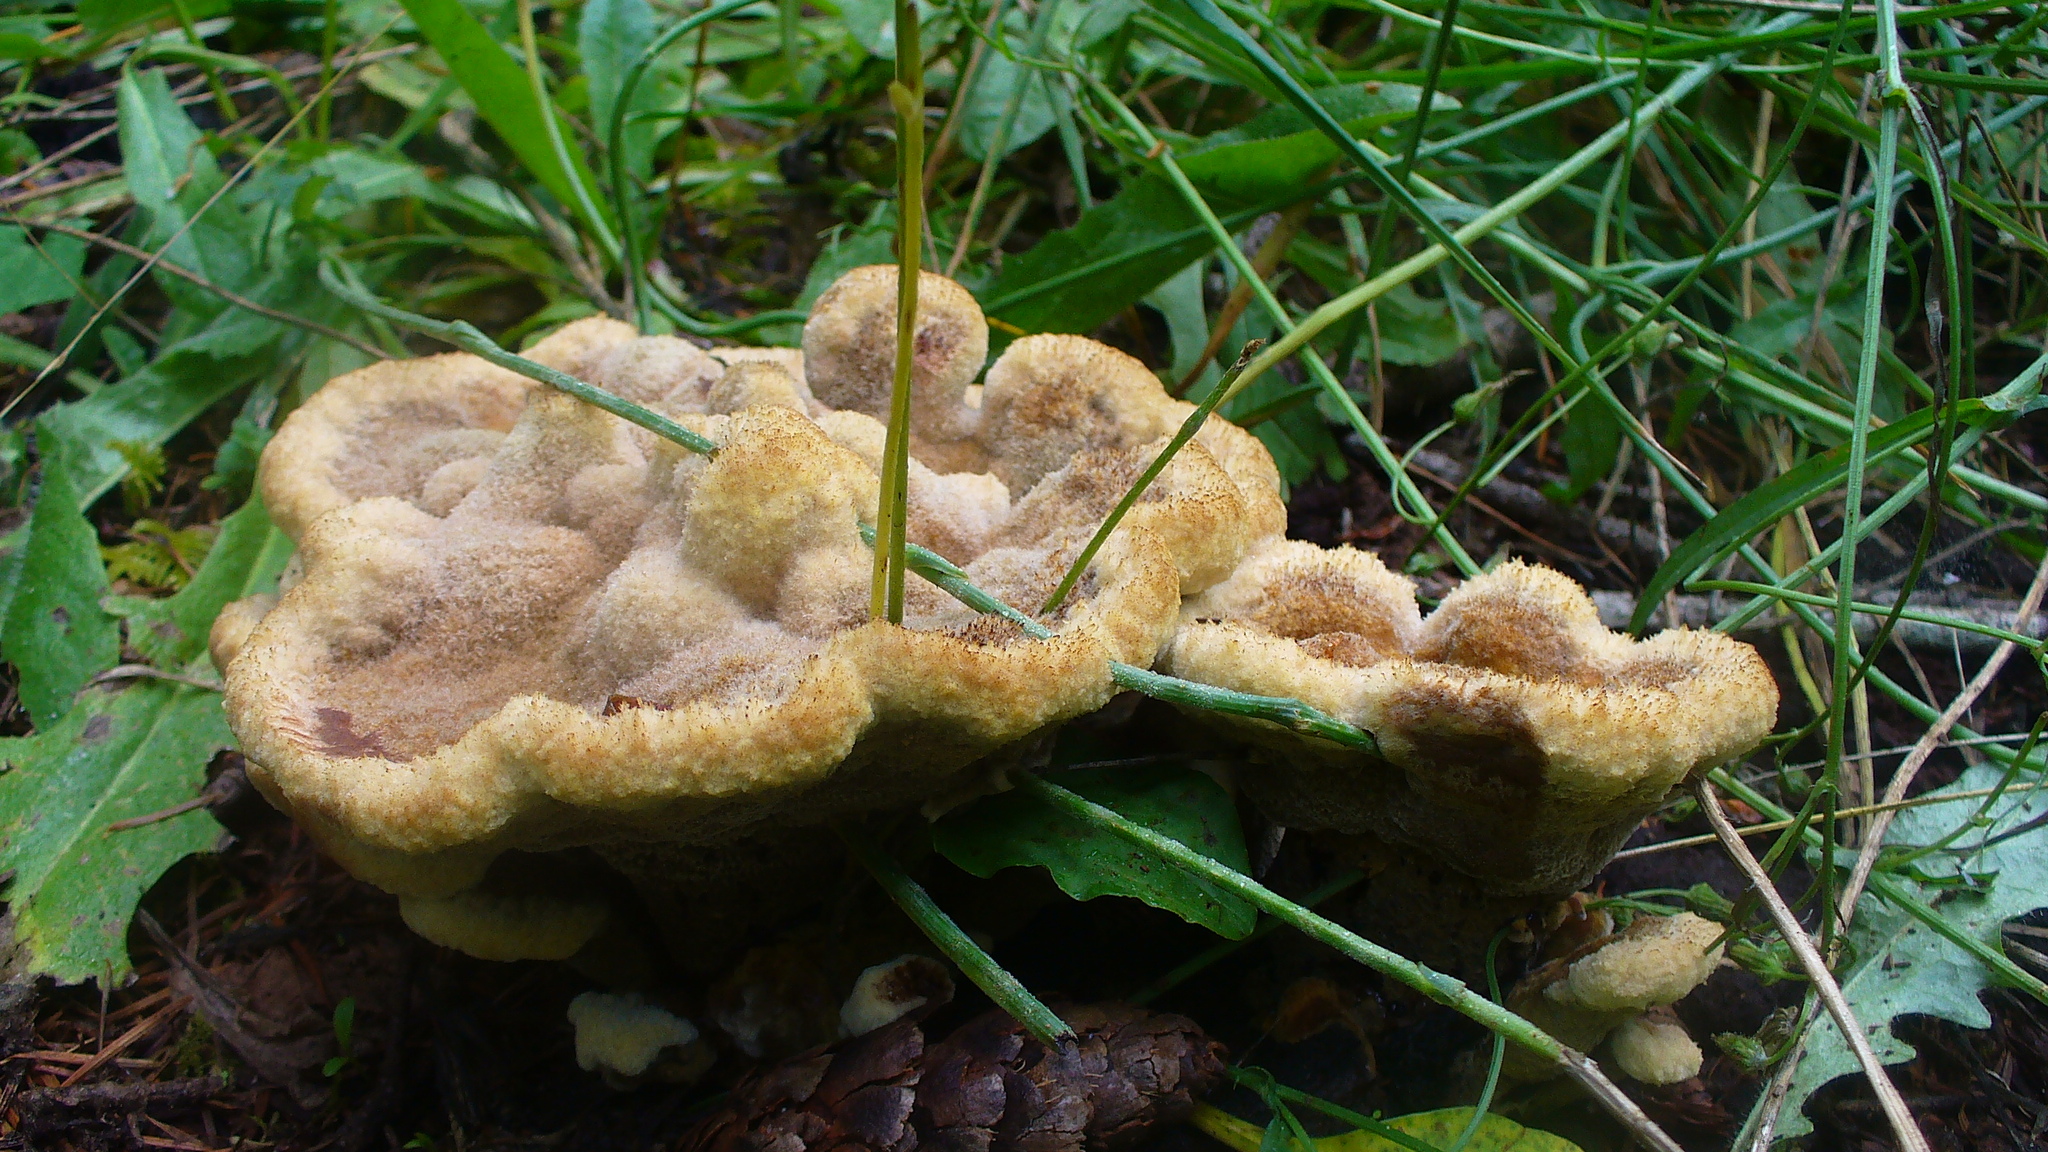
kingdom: Fungi
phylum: Basidiomycota
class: Agaricomycetes
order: Polyporales
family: Laetiporaceae
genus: Phaeolus
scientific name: Phaeolus schweinitzii
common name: Dyer's mazegill
